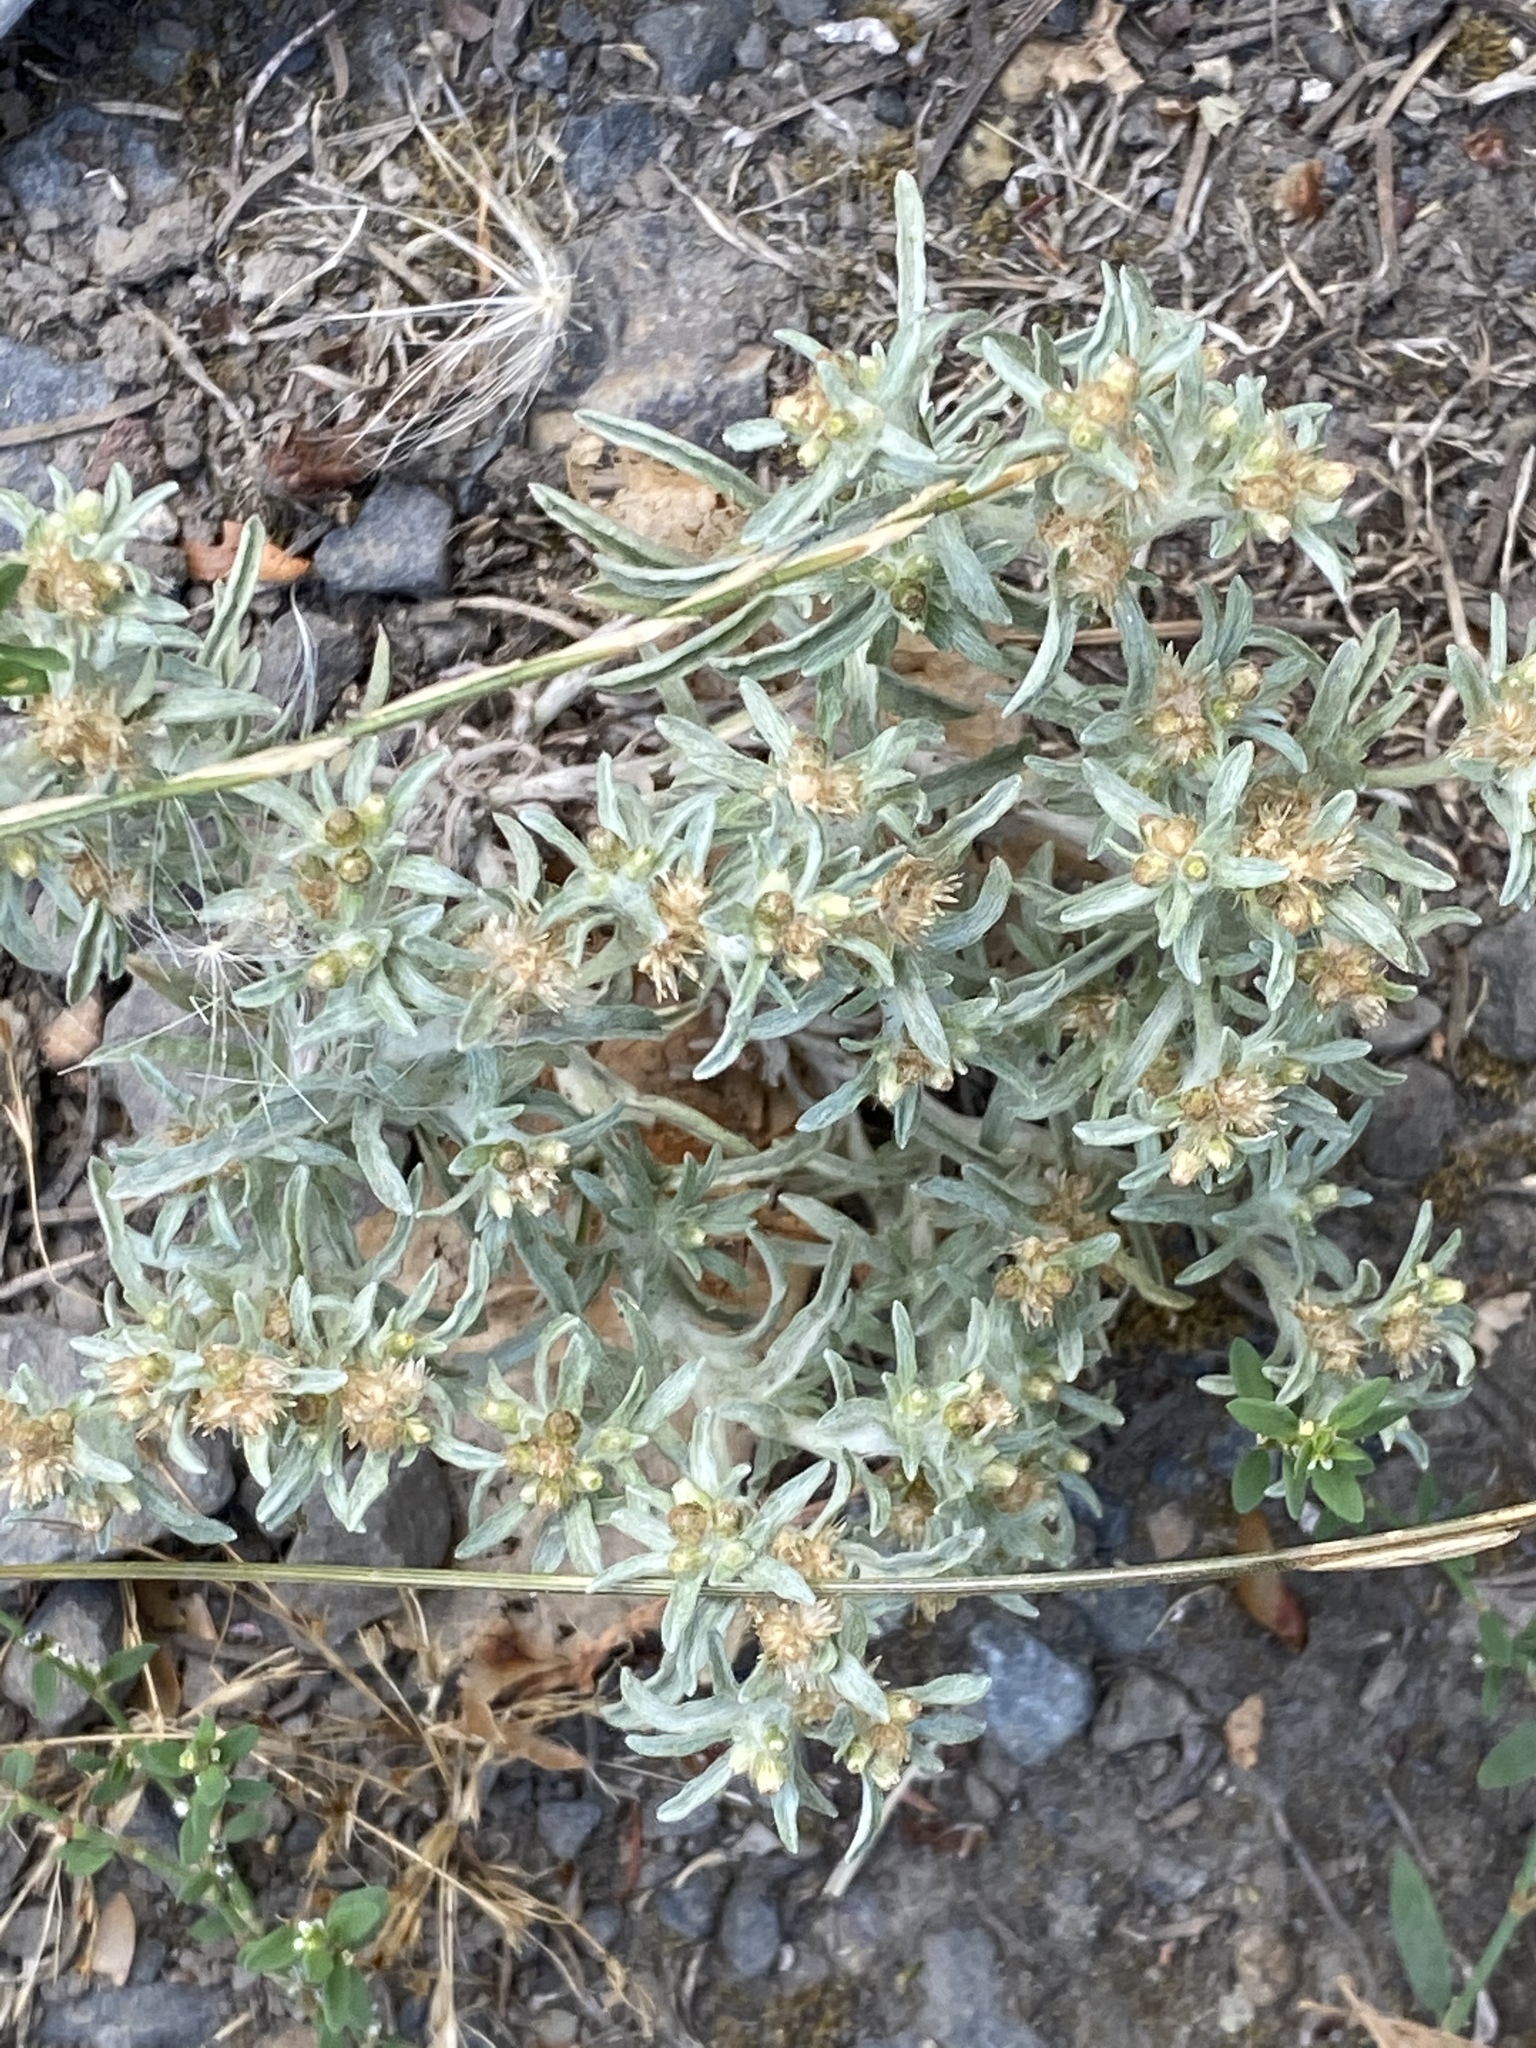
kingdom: Plantae
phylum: Tracheophyta
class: Magnoliopsida
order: Asterales
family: Asteraceae
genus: Gnaphalium
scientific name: Gnaphalium uliginosum
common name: Marsh cudweed
